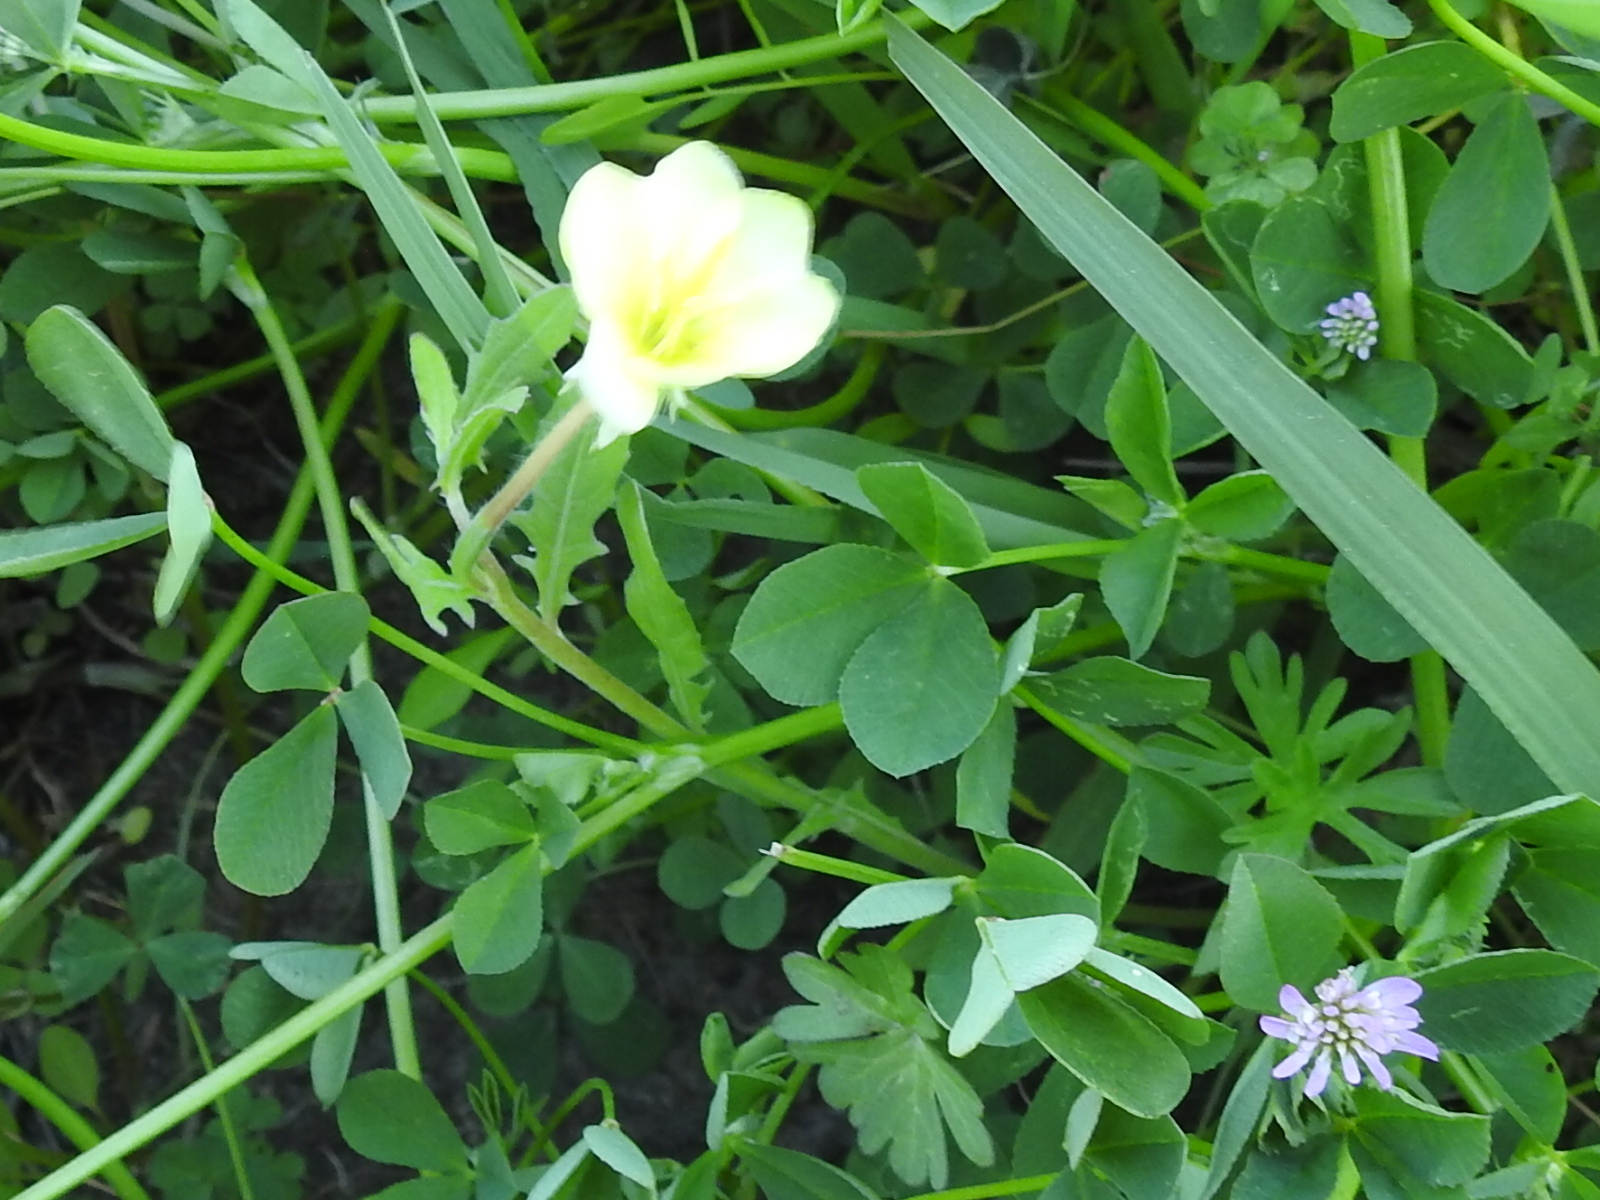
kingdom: Plantae
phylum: Tracheophyta
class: Magnoliopsida
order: Myrtales
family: Onagraceae
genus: Oenothera
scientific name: Oenothera laciniata
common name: Cut-leaved evening-primrose
